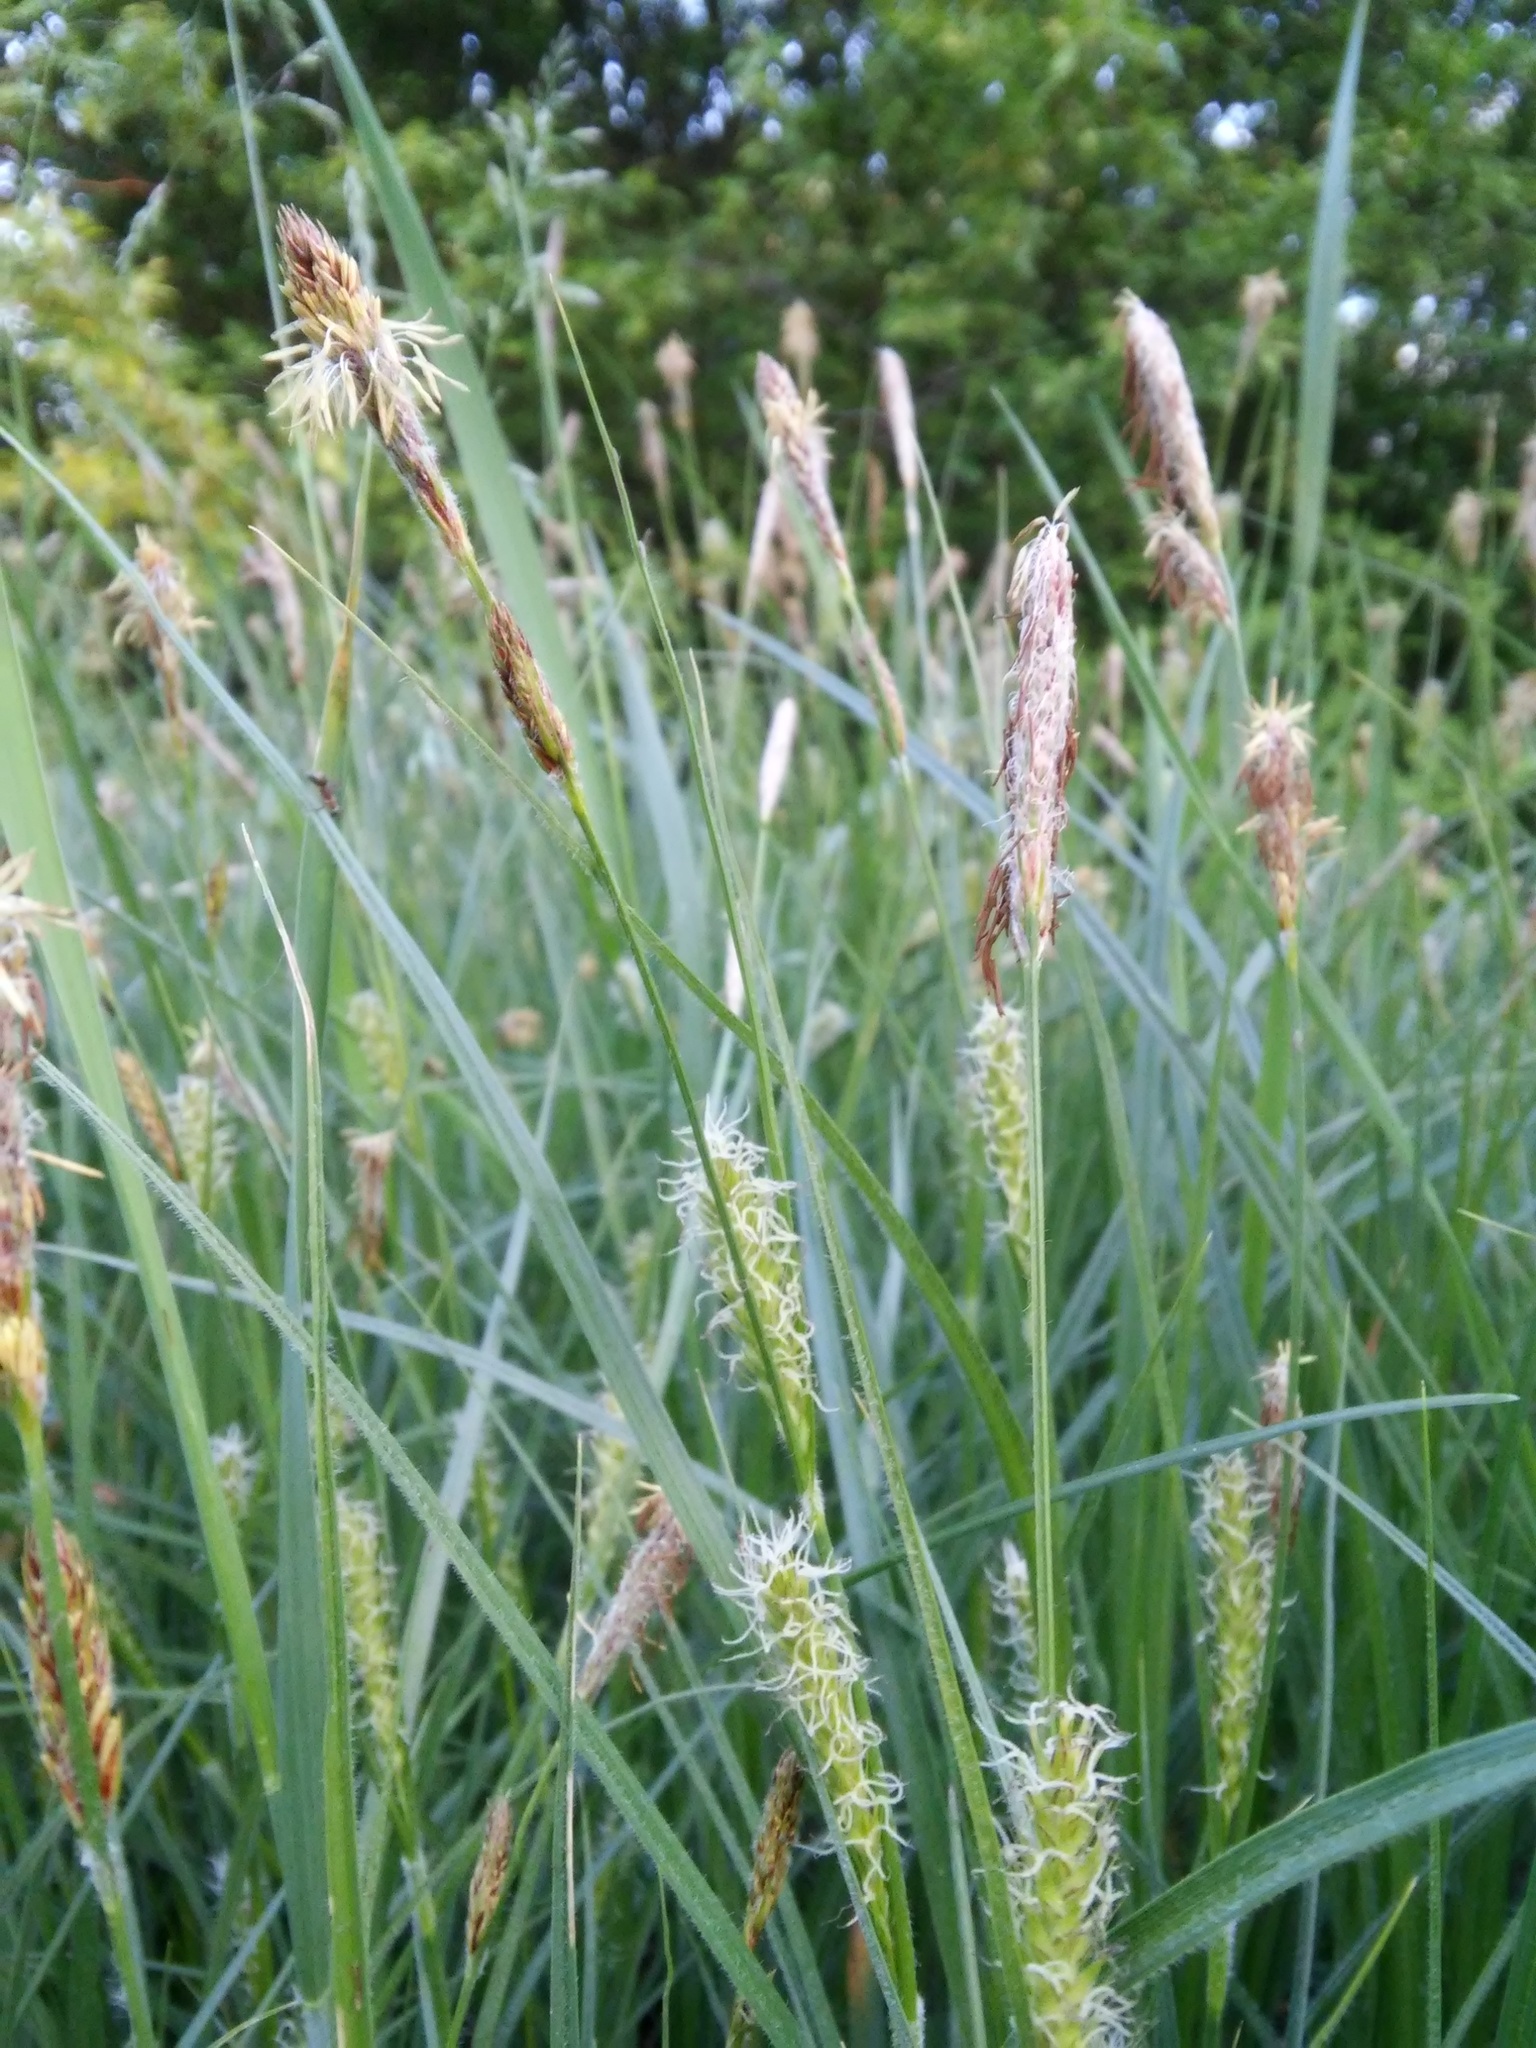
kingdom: Plantae
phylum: Tracheophyta
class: Liliopsida
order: Poales
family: Cyperaceae
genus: Carex
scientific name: Carex hirta
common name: Hairy sedge
